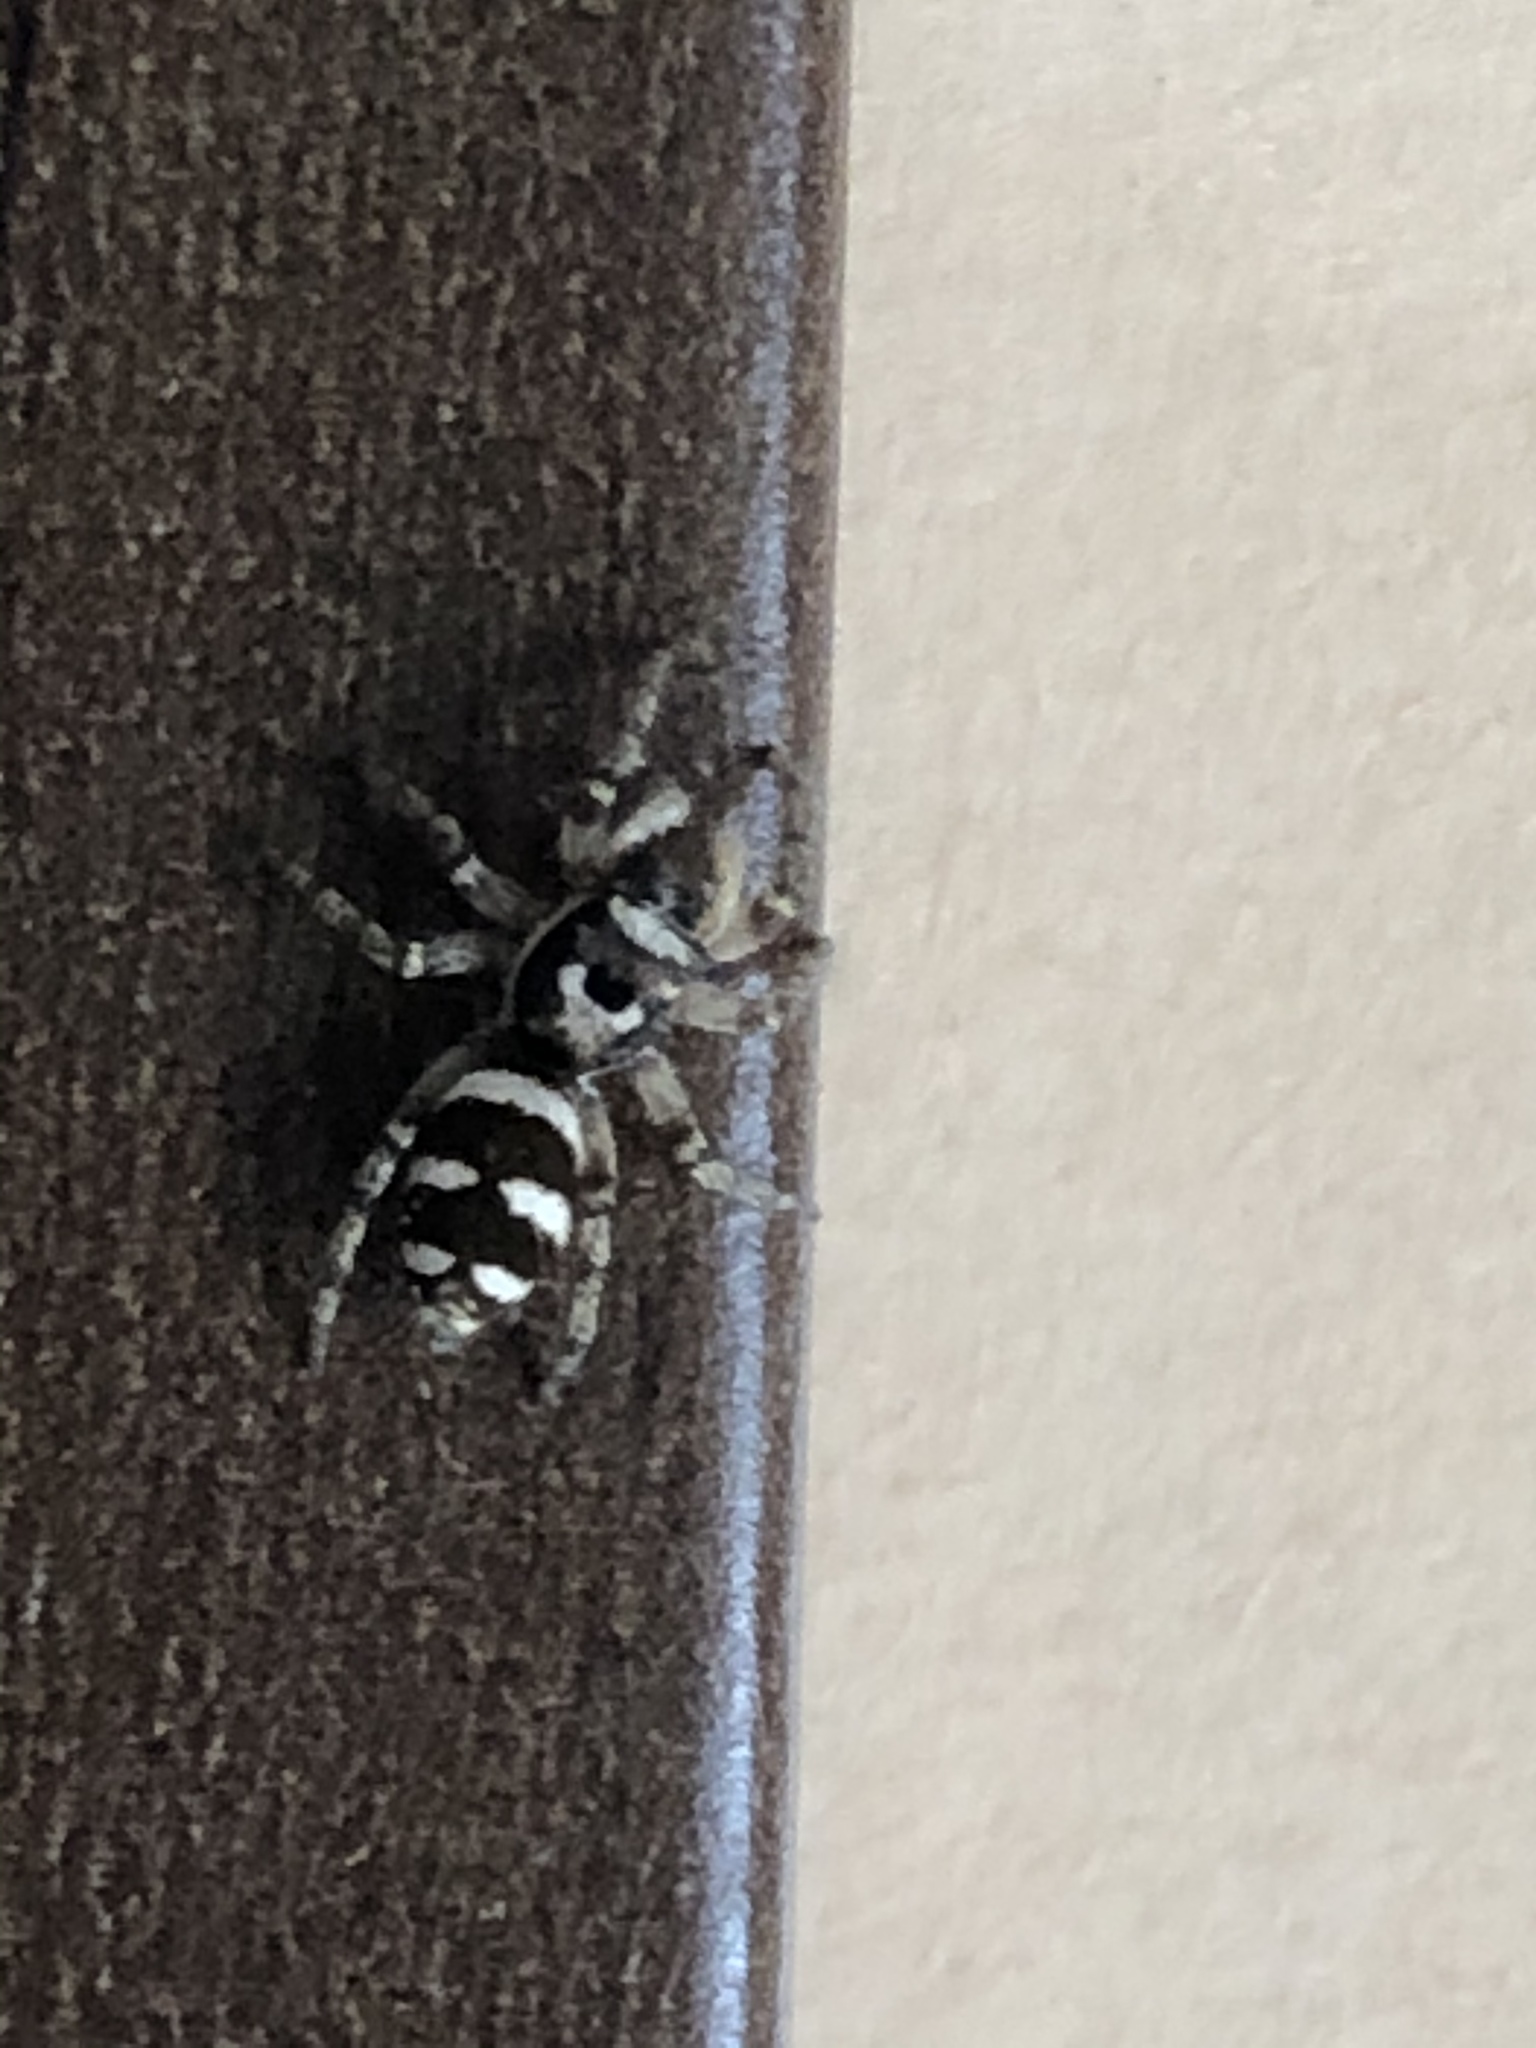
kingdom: Animalia
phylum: Arthropoda
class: Arachnida
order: Araneae
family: Salticidae
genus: Salticus
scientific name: Salticus scenicus
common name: Zebra jumper
